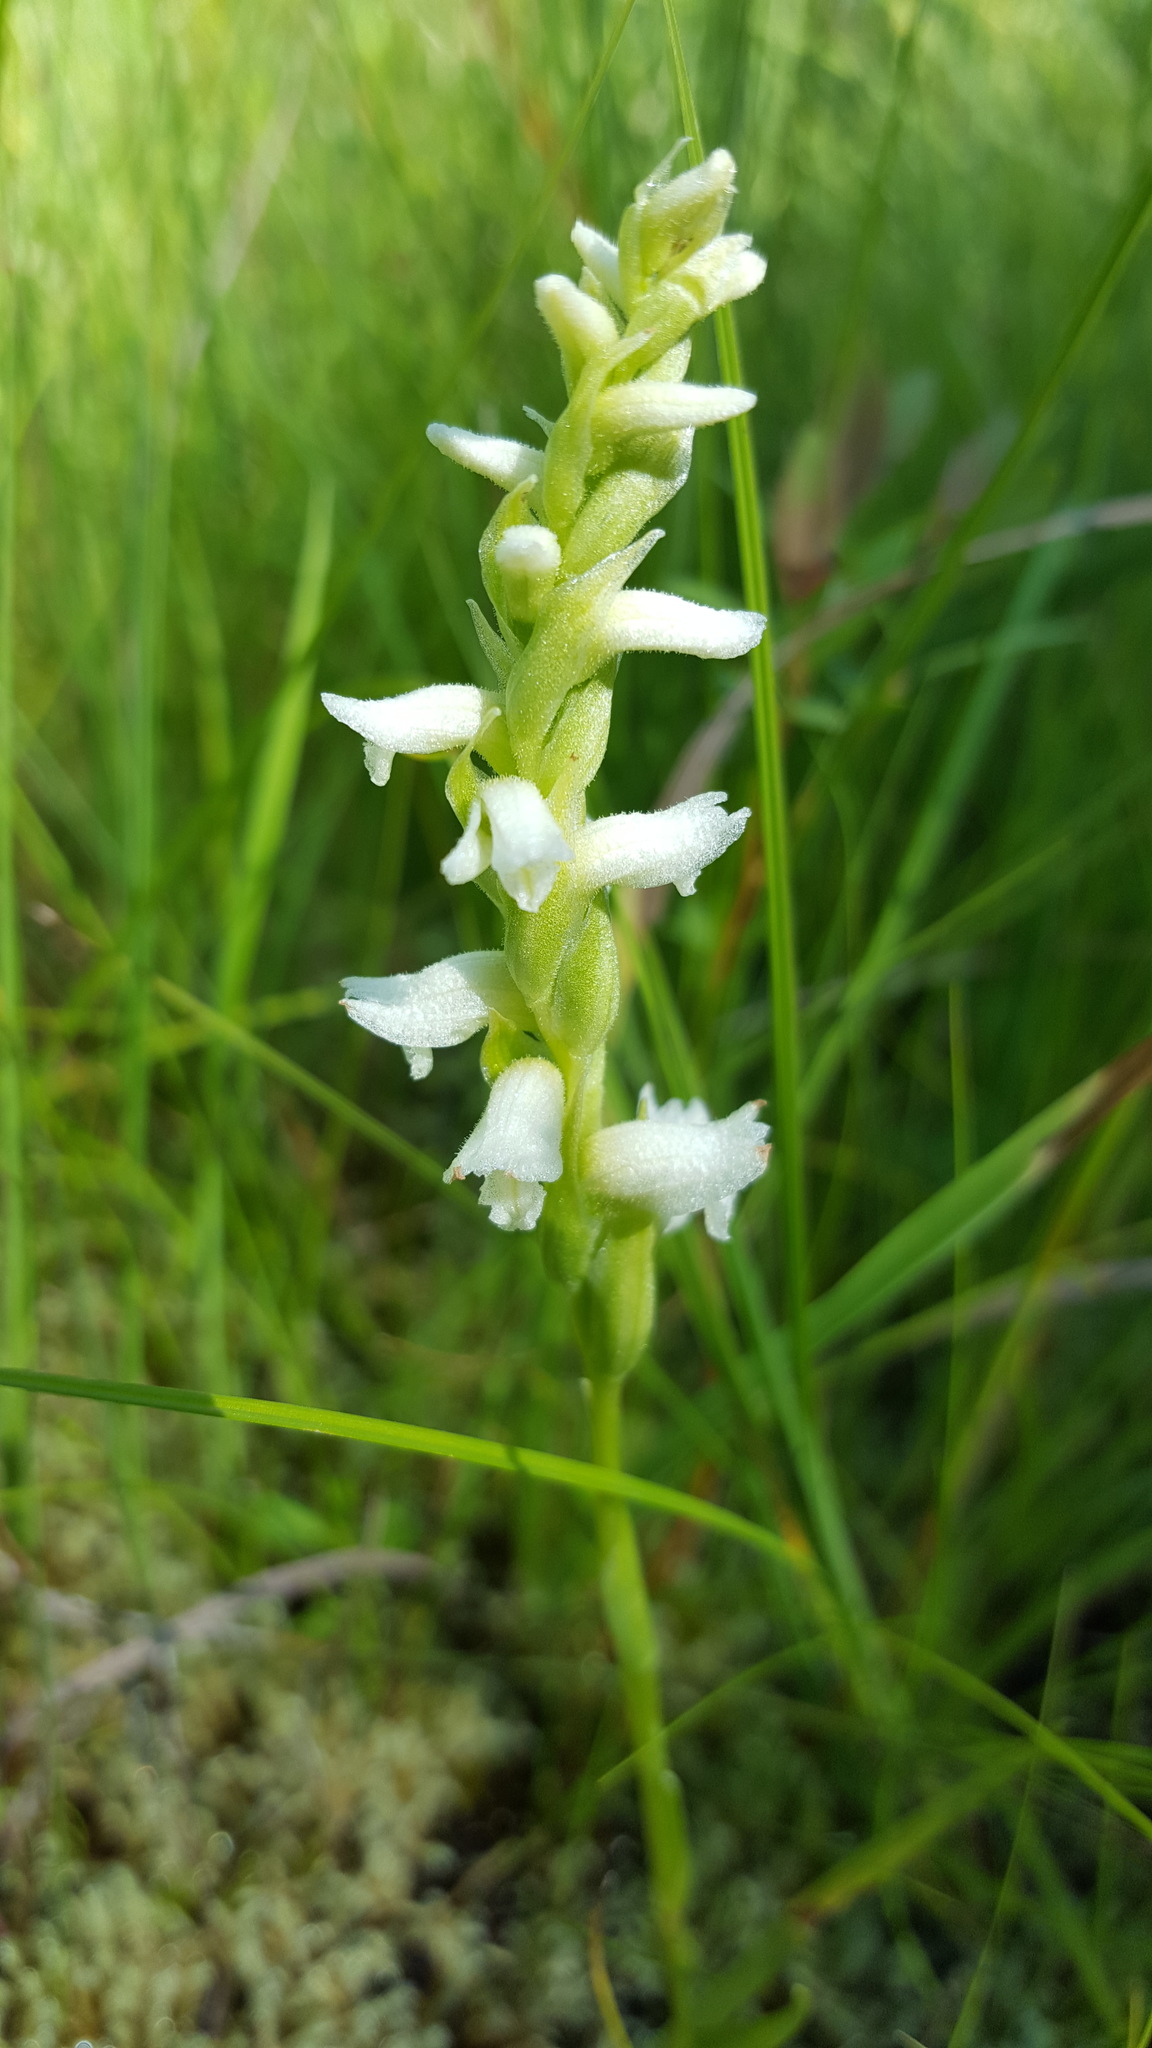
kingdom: Plantae
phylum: Tracheophyta
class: Liliopsida
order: Asparagales
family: Orchidaceae
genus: Spiranthes
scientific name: Spiranthes romanzoffiana
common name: Irish lady's-tresses
